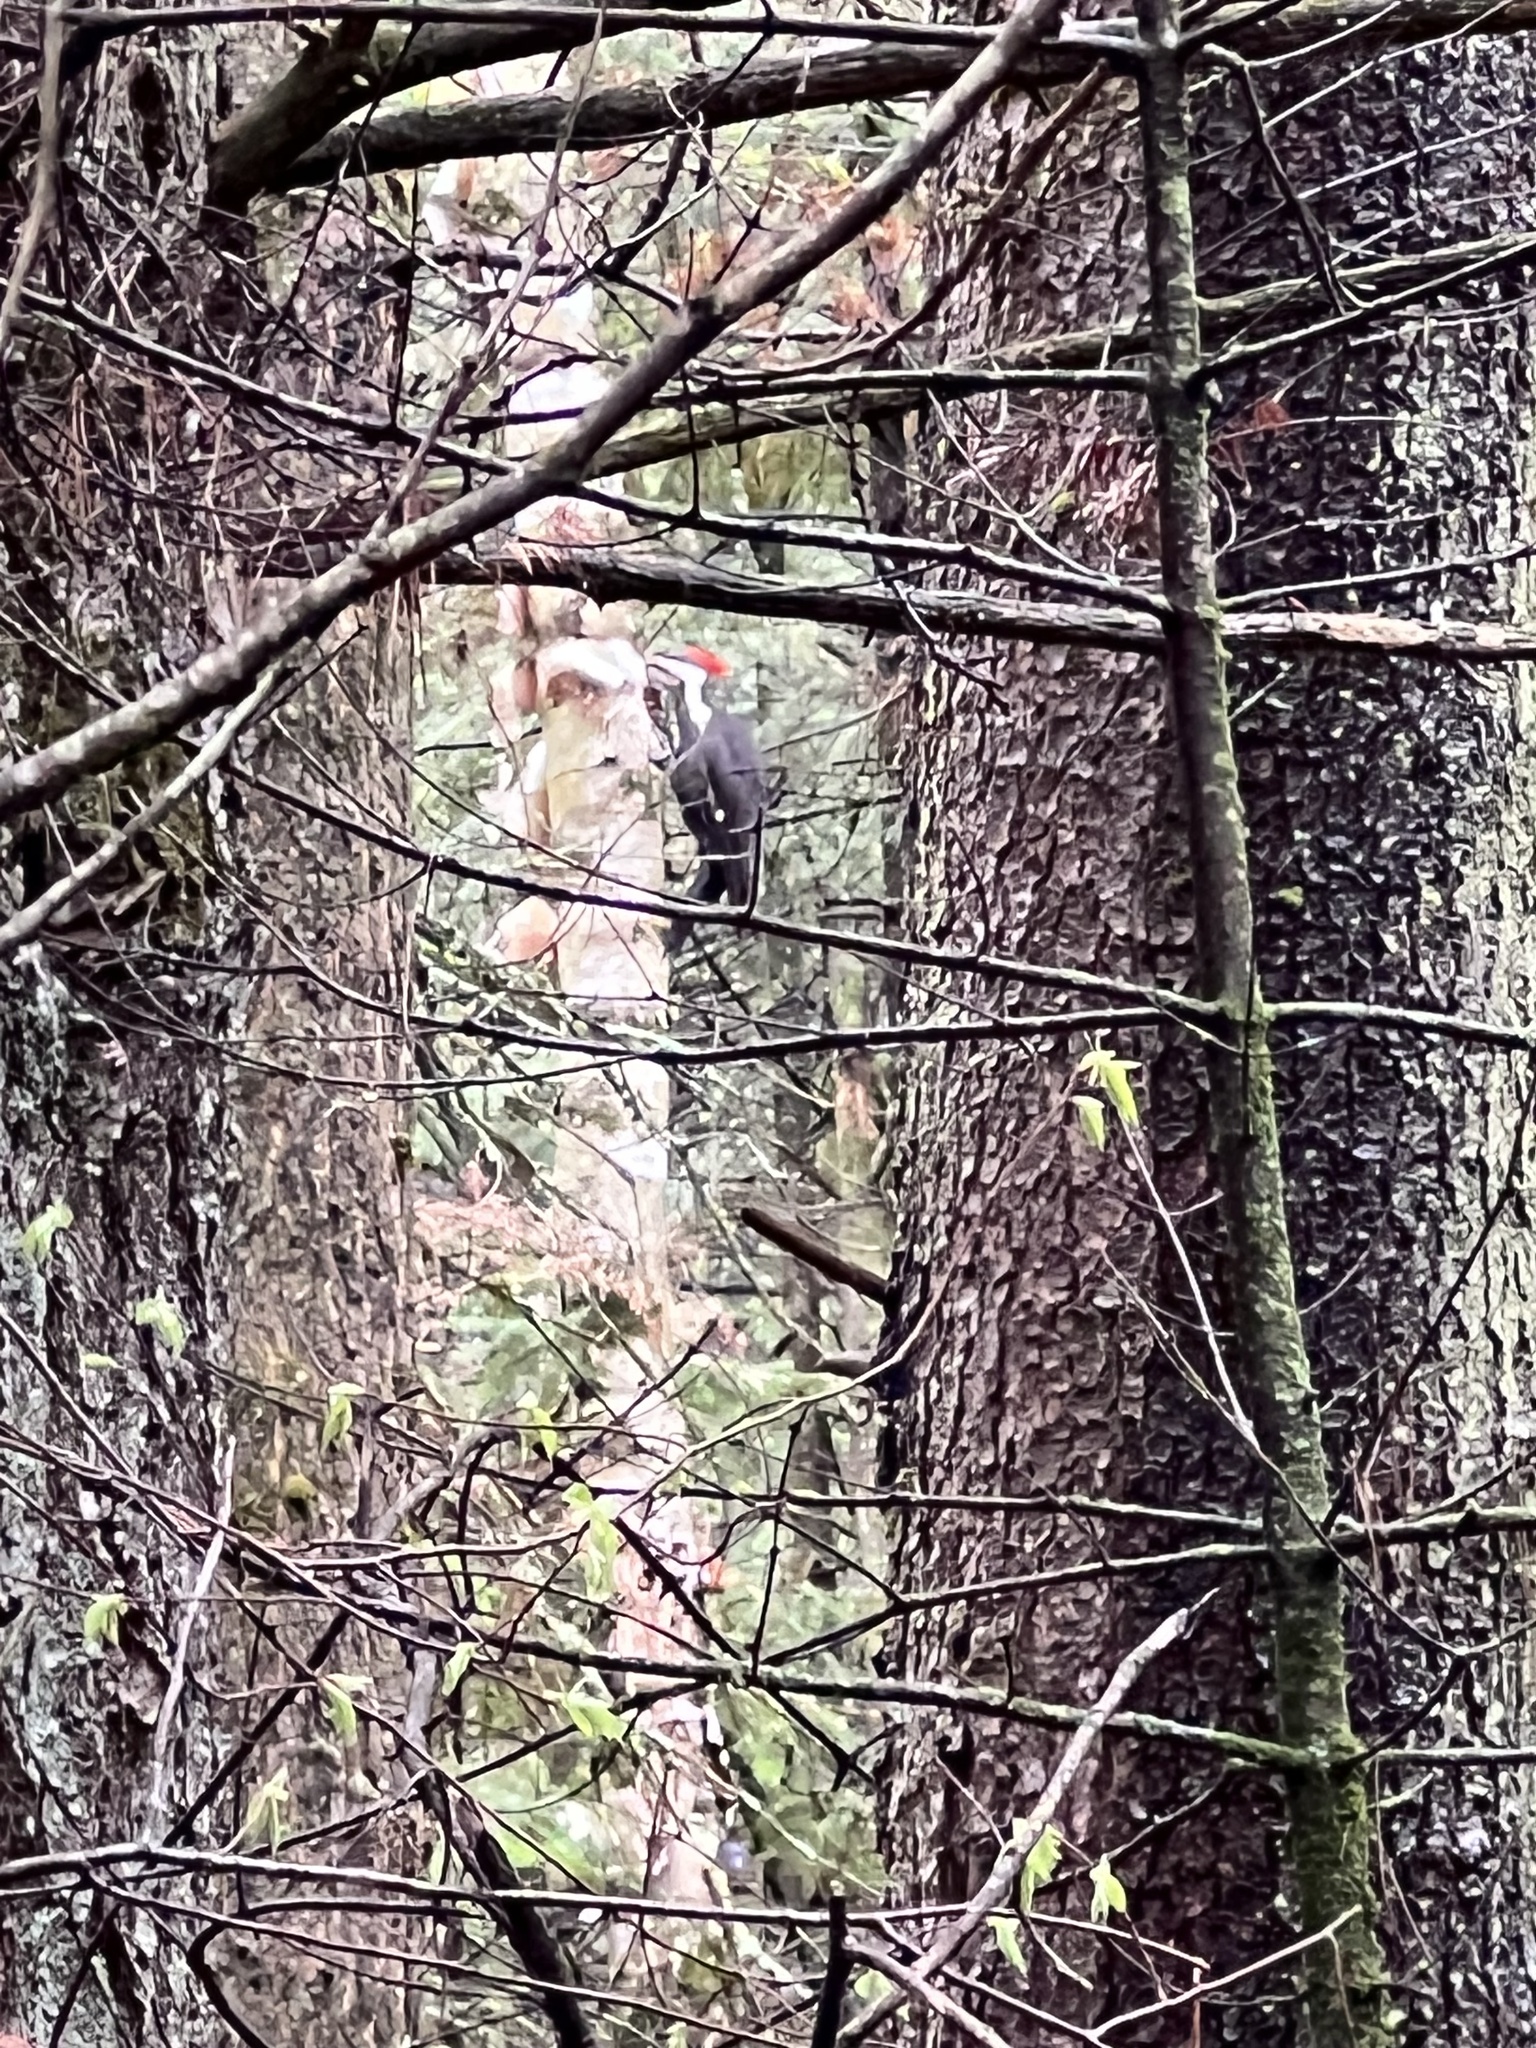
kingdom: Animalia
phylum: Chordata
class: Aves
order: Piciformes
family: Picidae
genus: Dryocopus
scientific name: Dryocopus pileatus
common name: Pileated woodpecker
